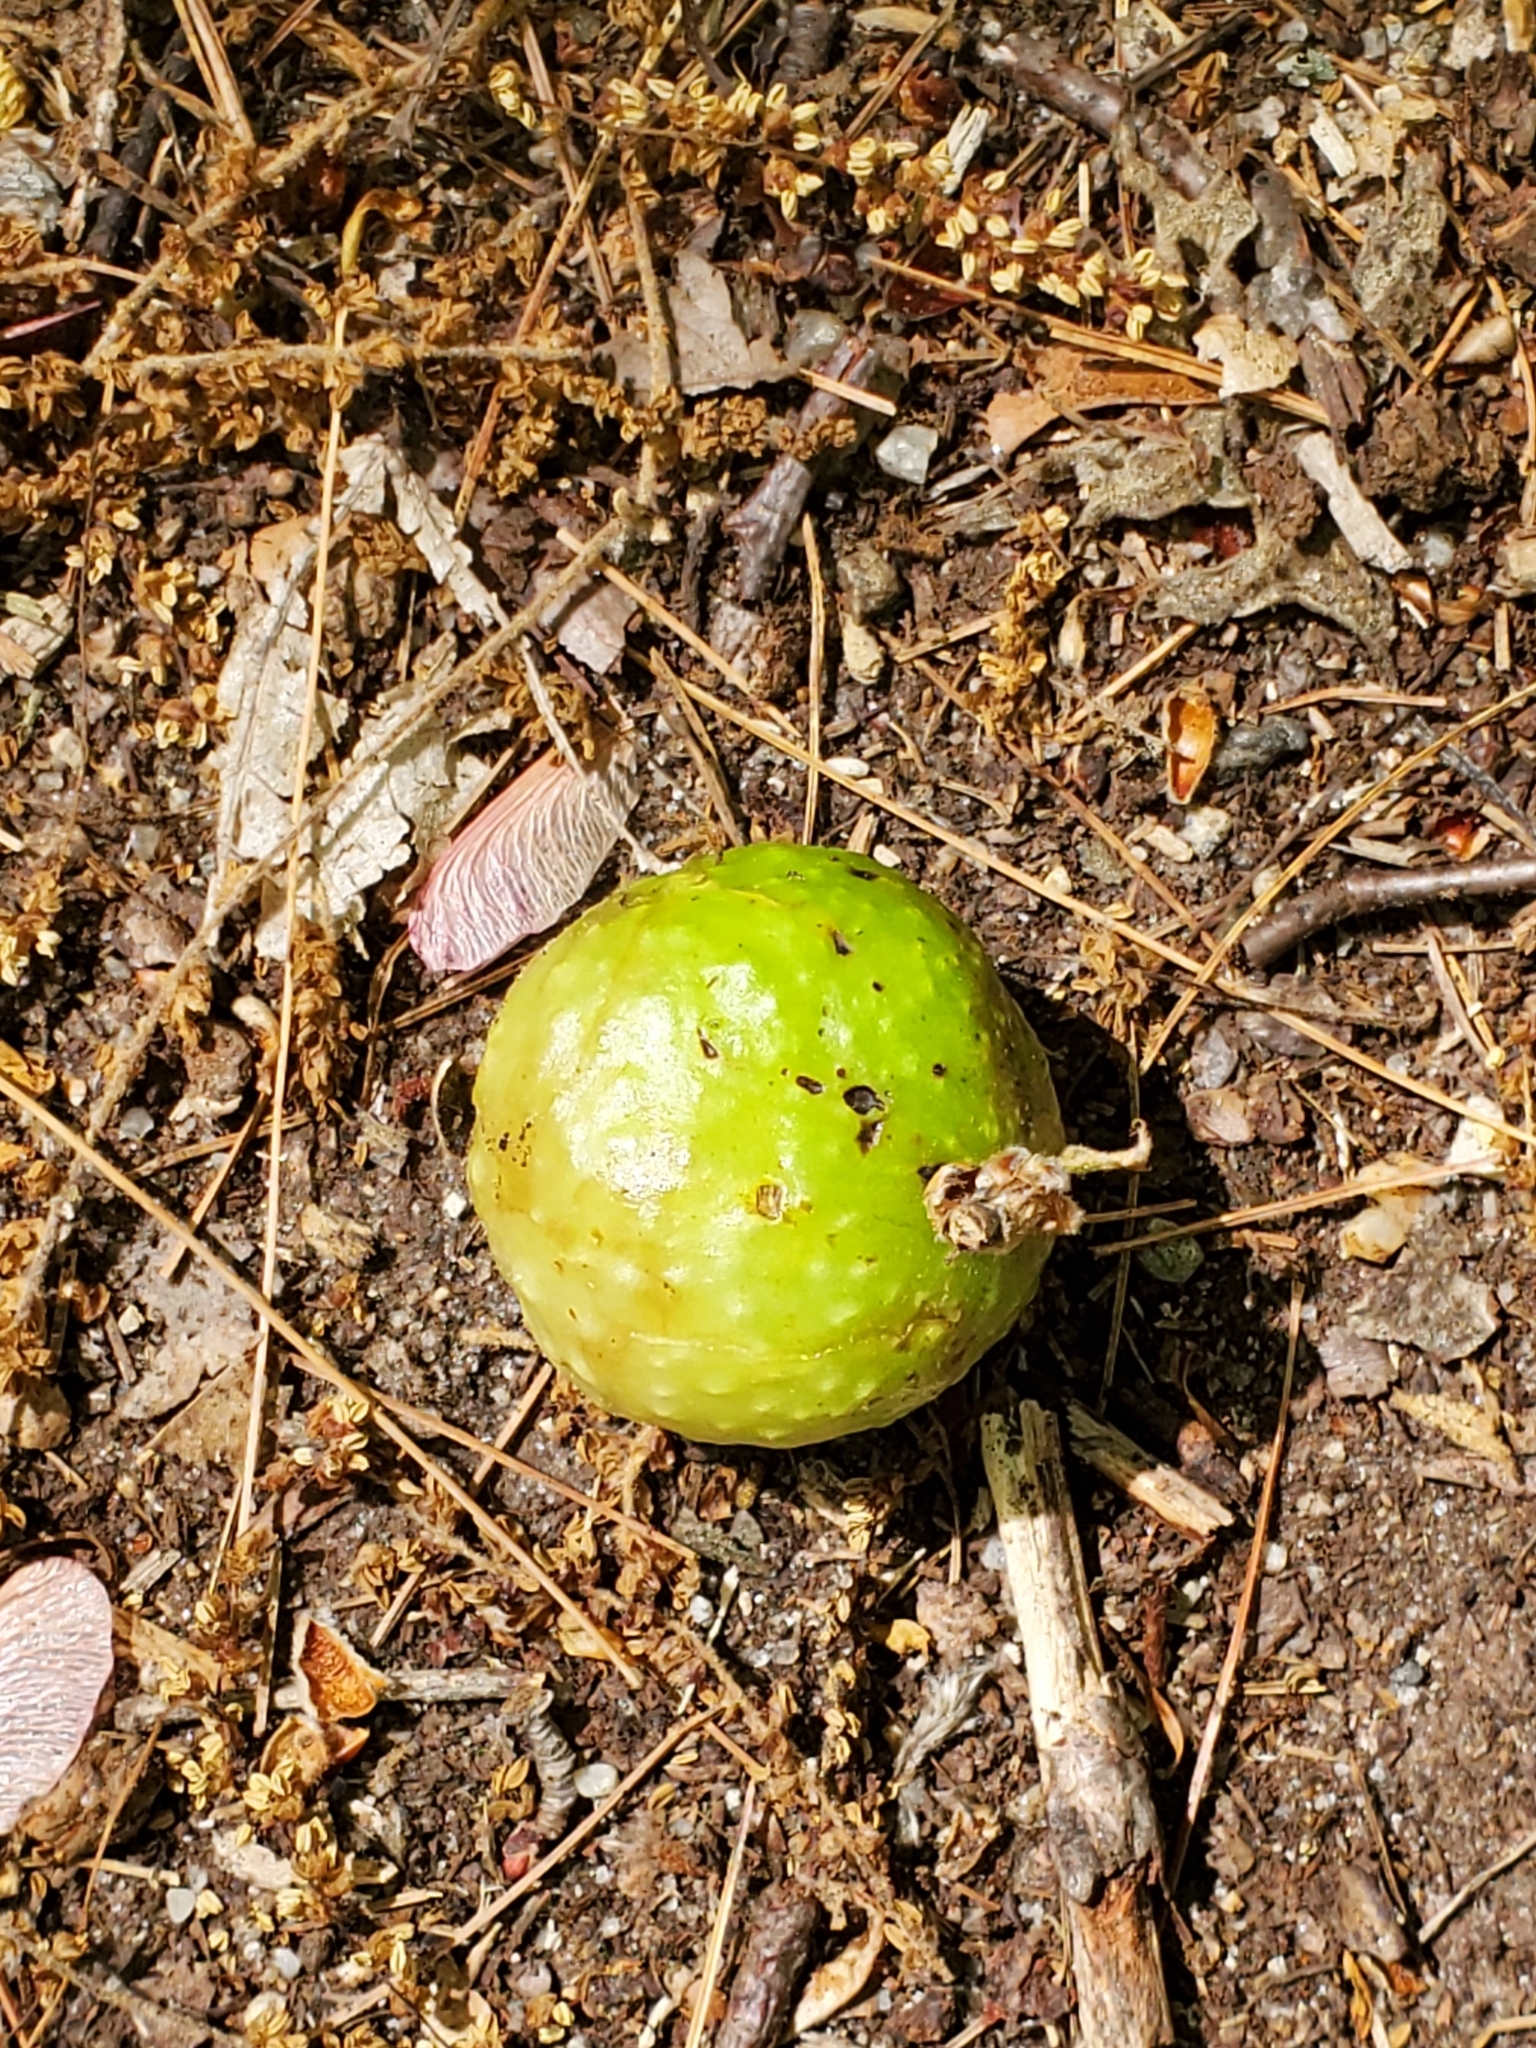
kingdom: Animalia
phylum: Arthropoda
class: Insecta
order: Hymenoptera
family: Cynipidae
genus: Amphibolips
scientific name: Amphibolips
